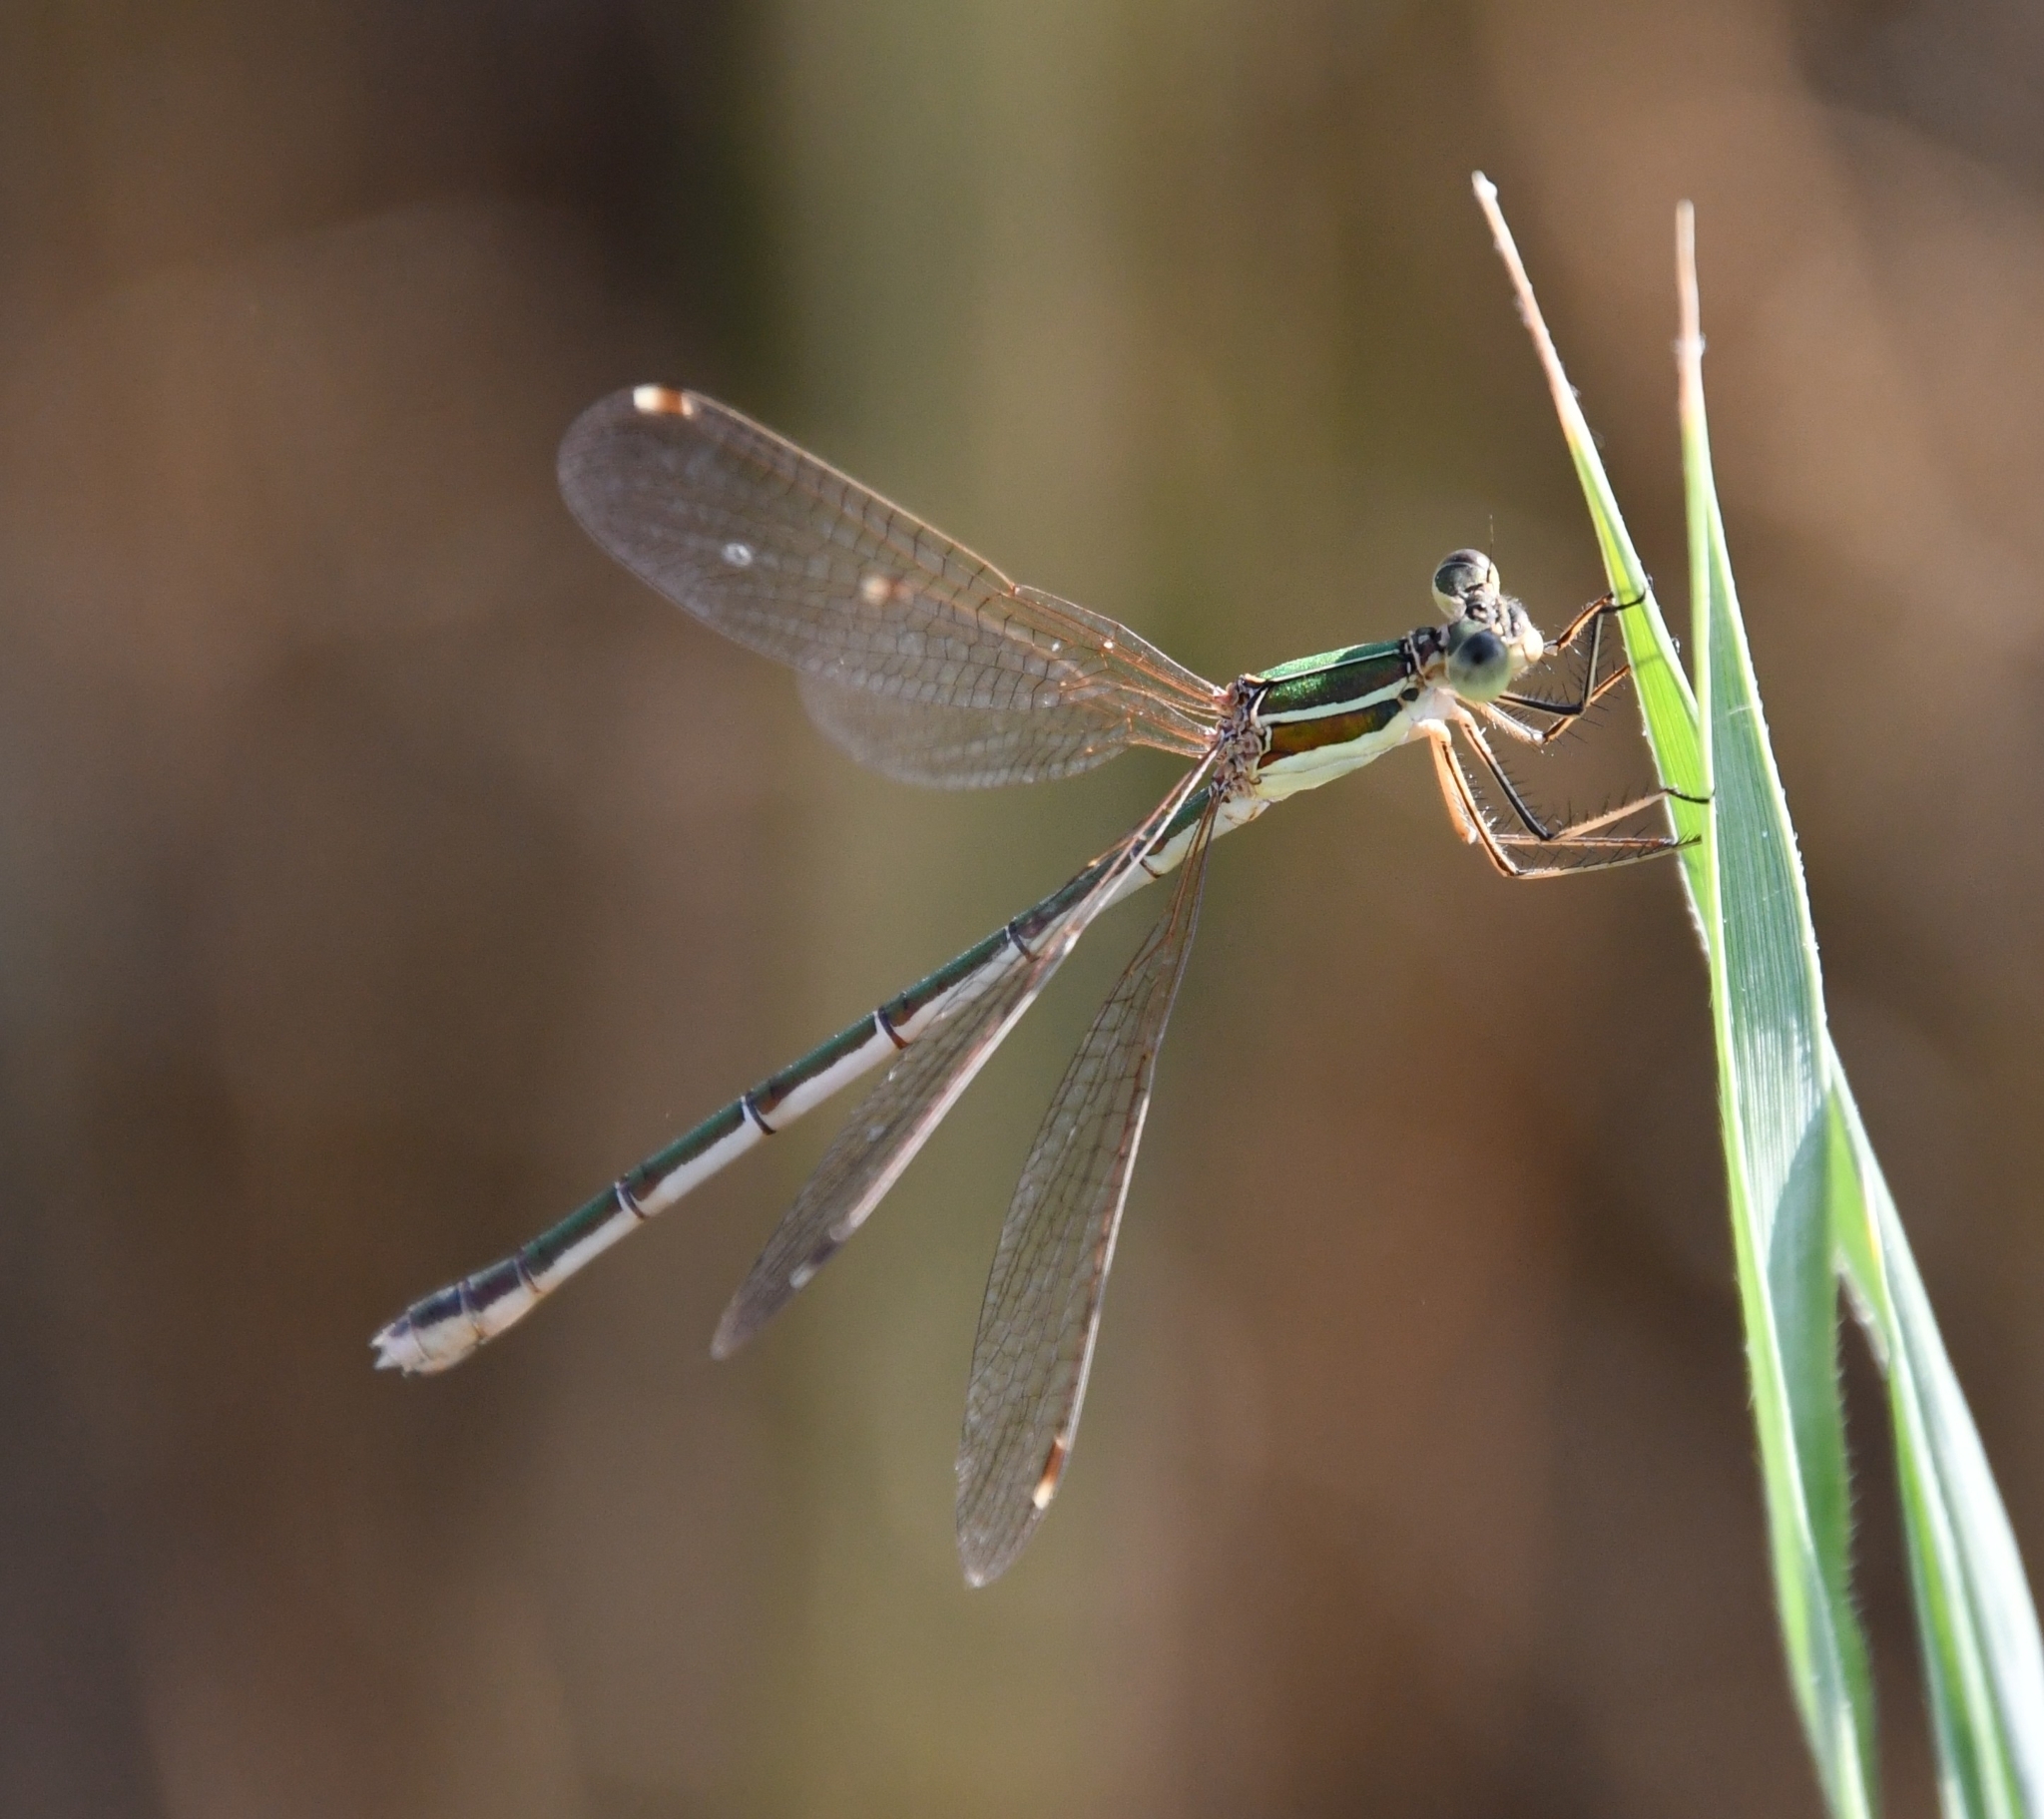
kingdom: Animalia
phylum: Arthropoda
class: Insecta
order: Odonata
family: Lestidae
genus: Lestes
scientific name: Lestes barbarus
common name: Migrant spreadwing
